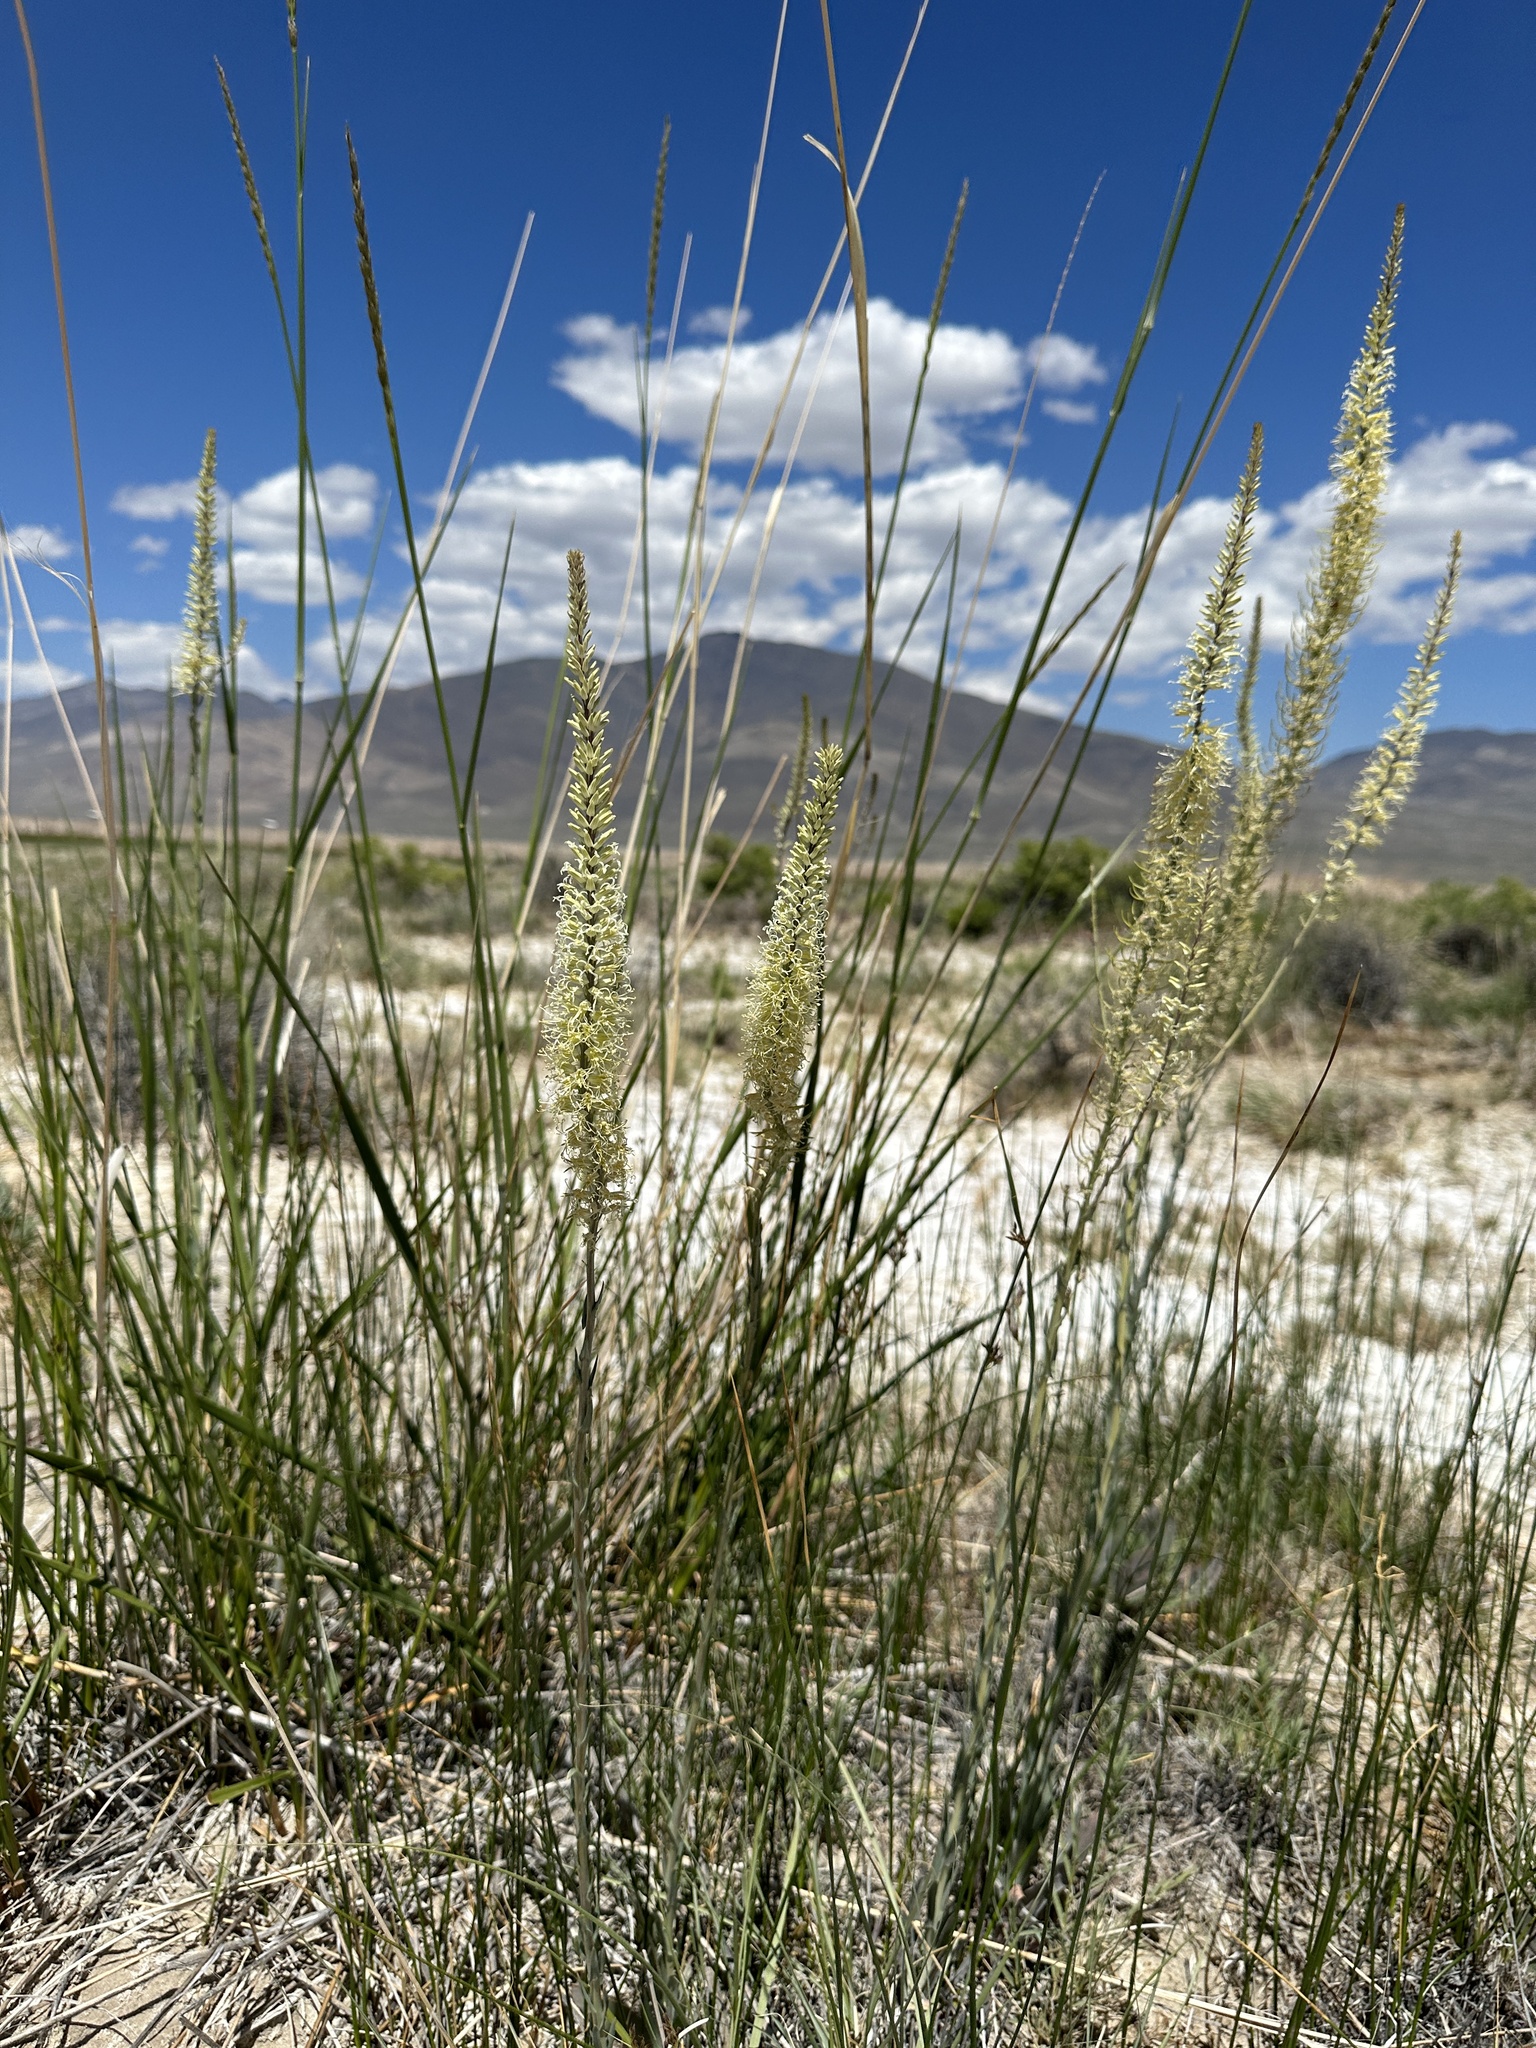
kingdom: Plantae
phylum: Tracheophyta
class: Magnoliopsida
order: Brassicales
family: Brassicaceae
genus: Thelypodium
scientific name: Thelypodium crispum
